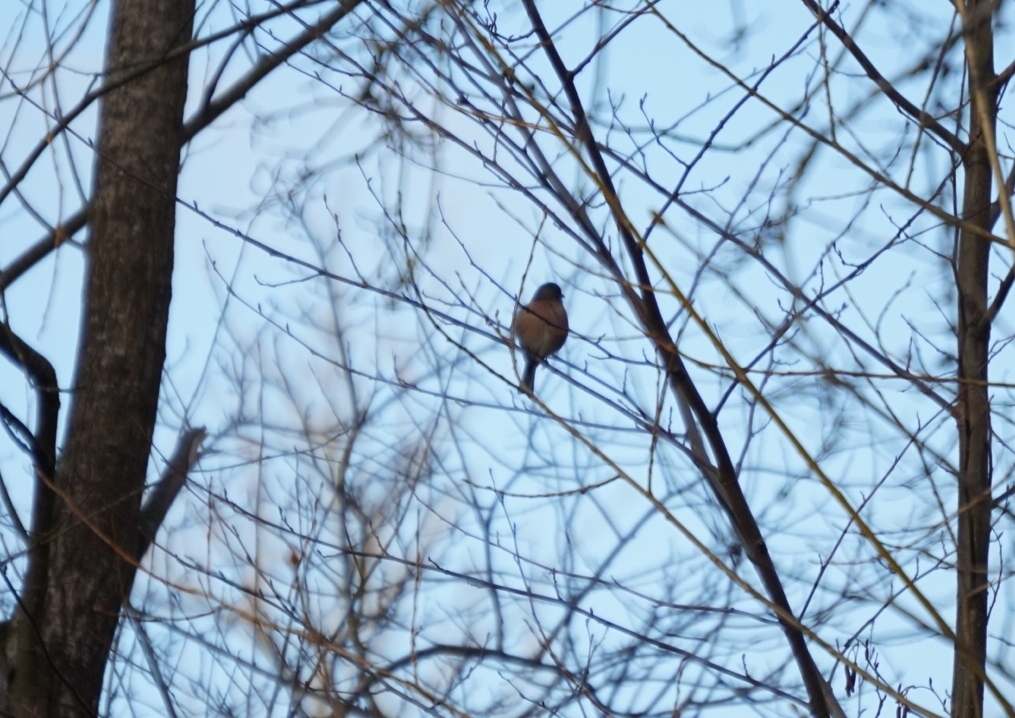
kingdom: Animalia
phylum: Chordata
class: Aves
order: Passeriformes
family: Fringillidae
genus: Fringilla
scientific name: Fringilla coelebs
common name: Common chaffinch
